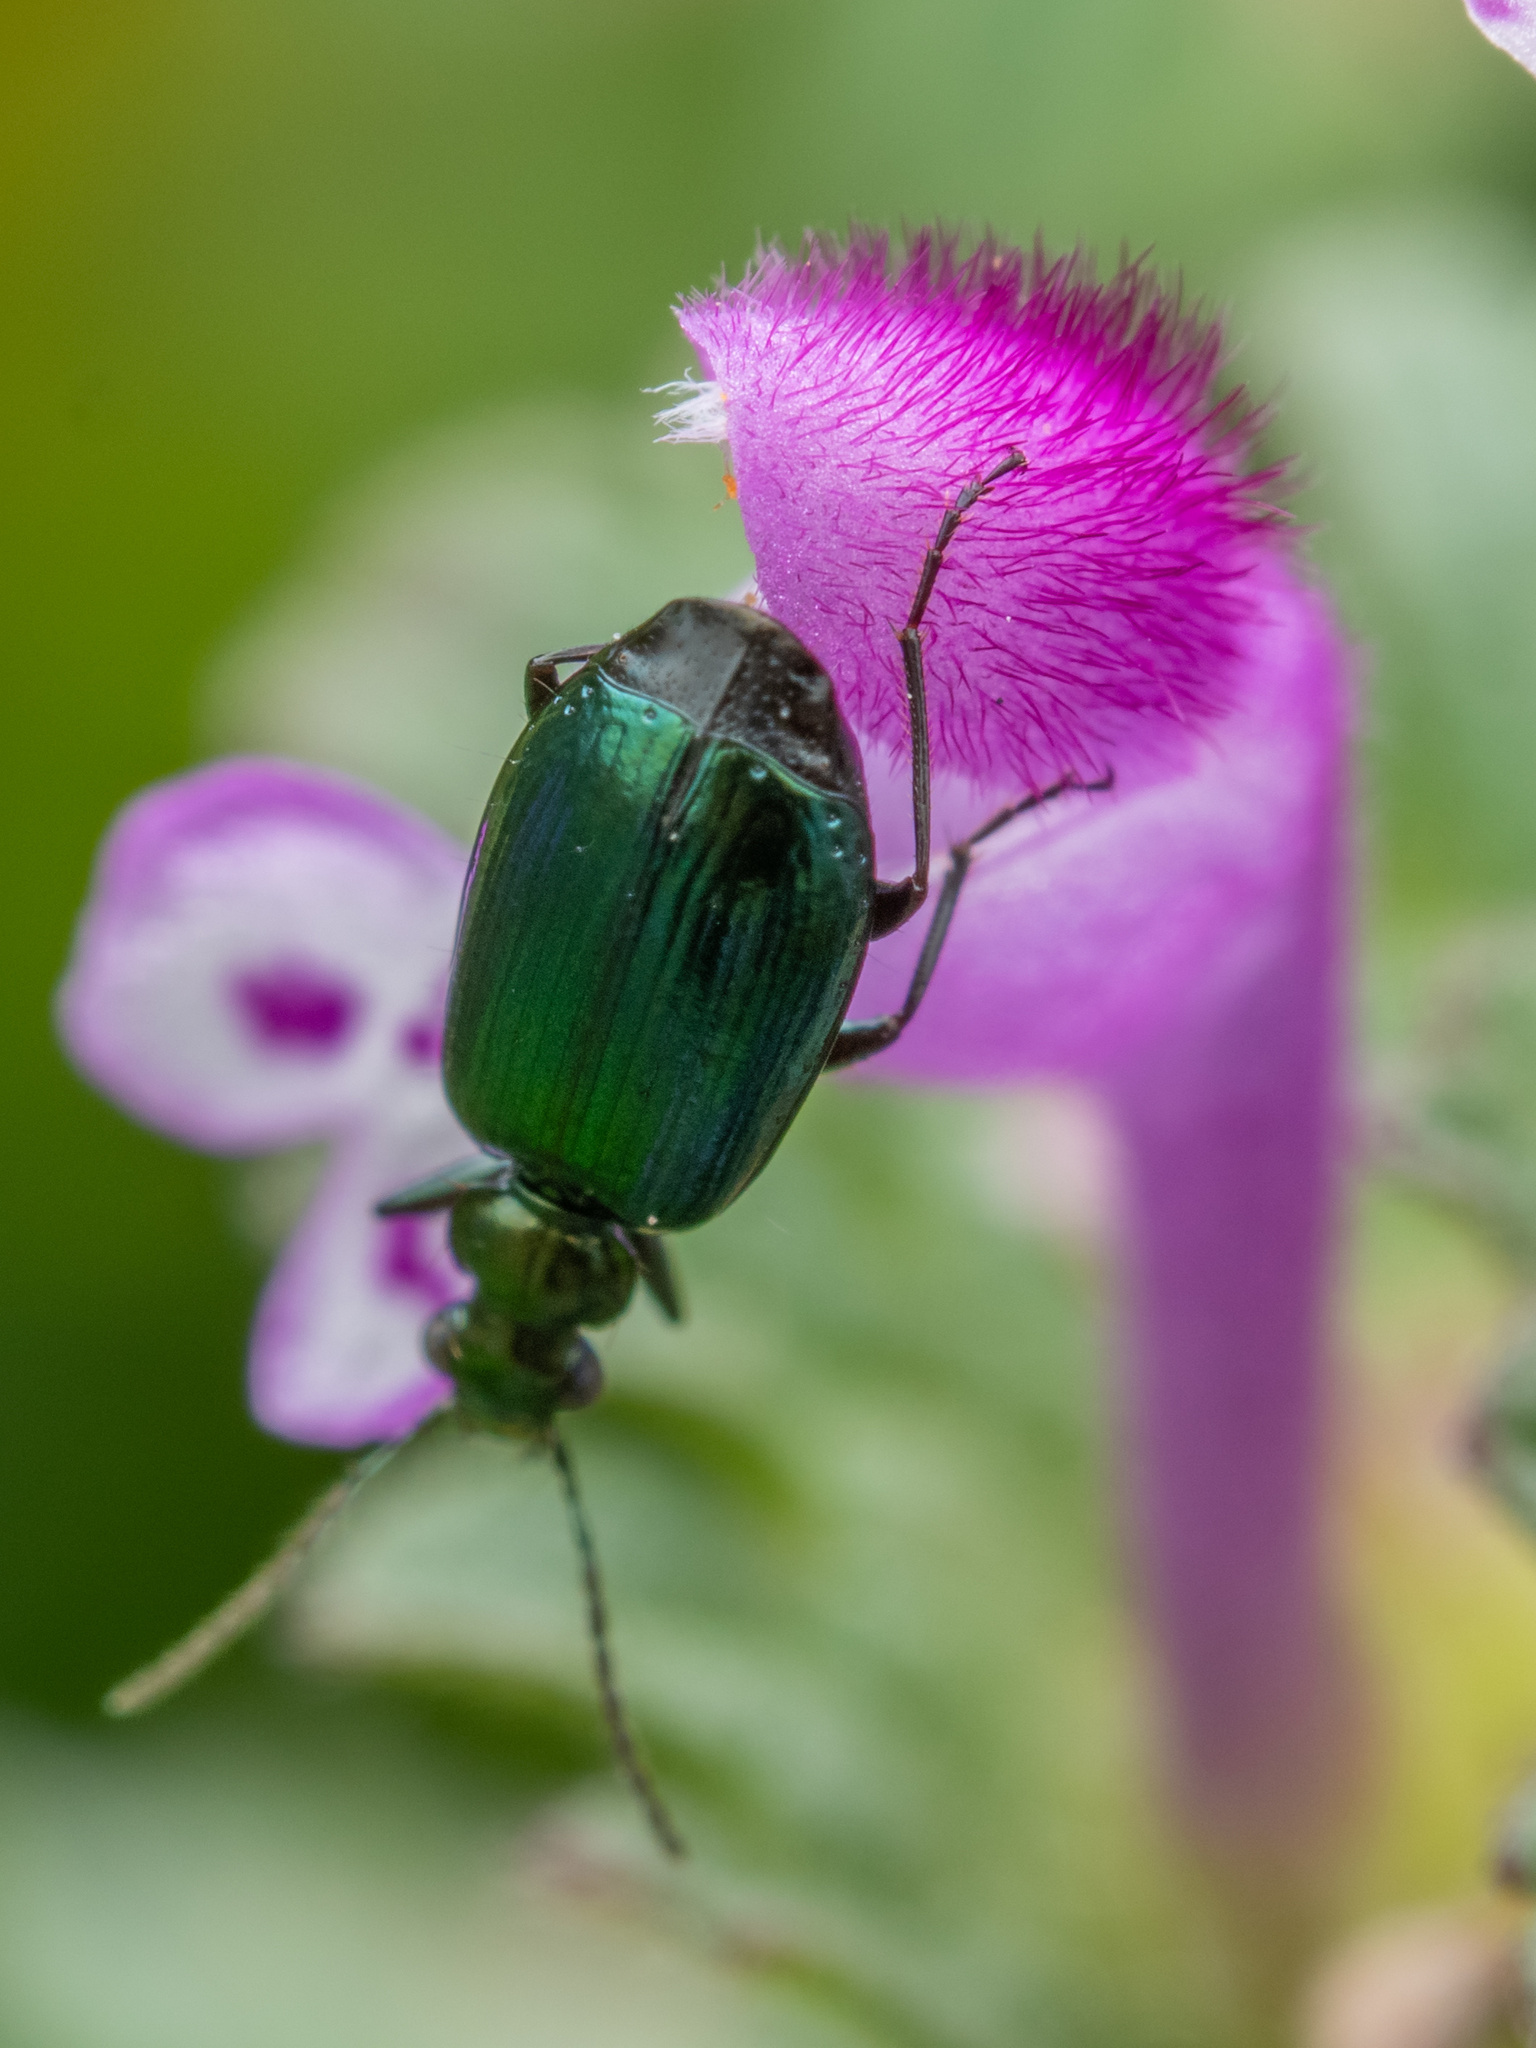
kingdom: Animalia
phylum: Arthropoda
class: Insecta
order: Coleoptera
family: Carabidae
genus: Lebia
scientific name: Lebia viridis
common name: Flower lebia beetle
